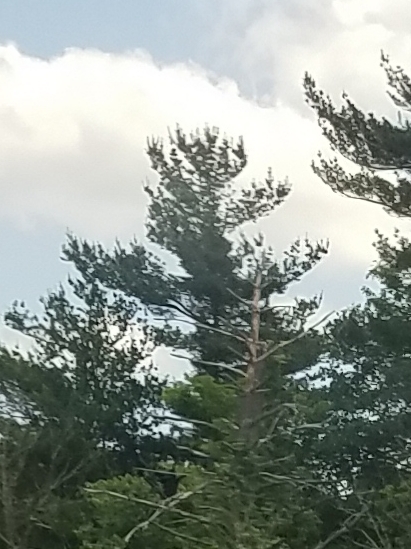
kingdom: Plantae
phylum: Tracheophyta
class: Pinopsida
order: Pinales
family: Pinaceae
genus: Pinus
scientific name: Pinus strobus
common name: Weymouth pine
